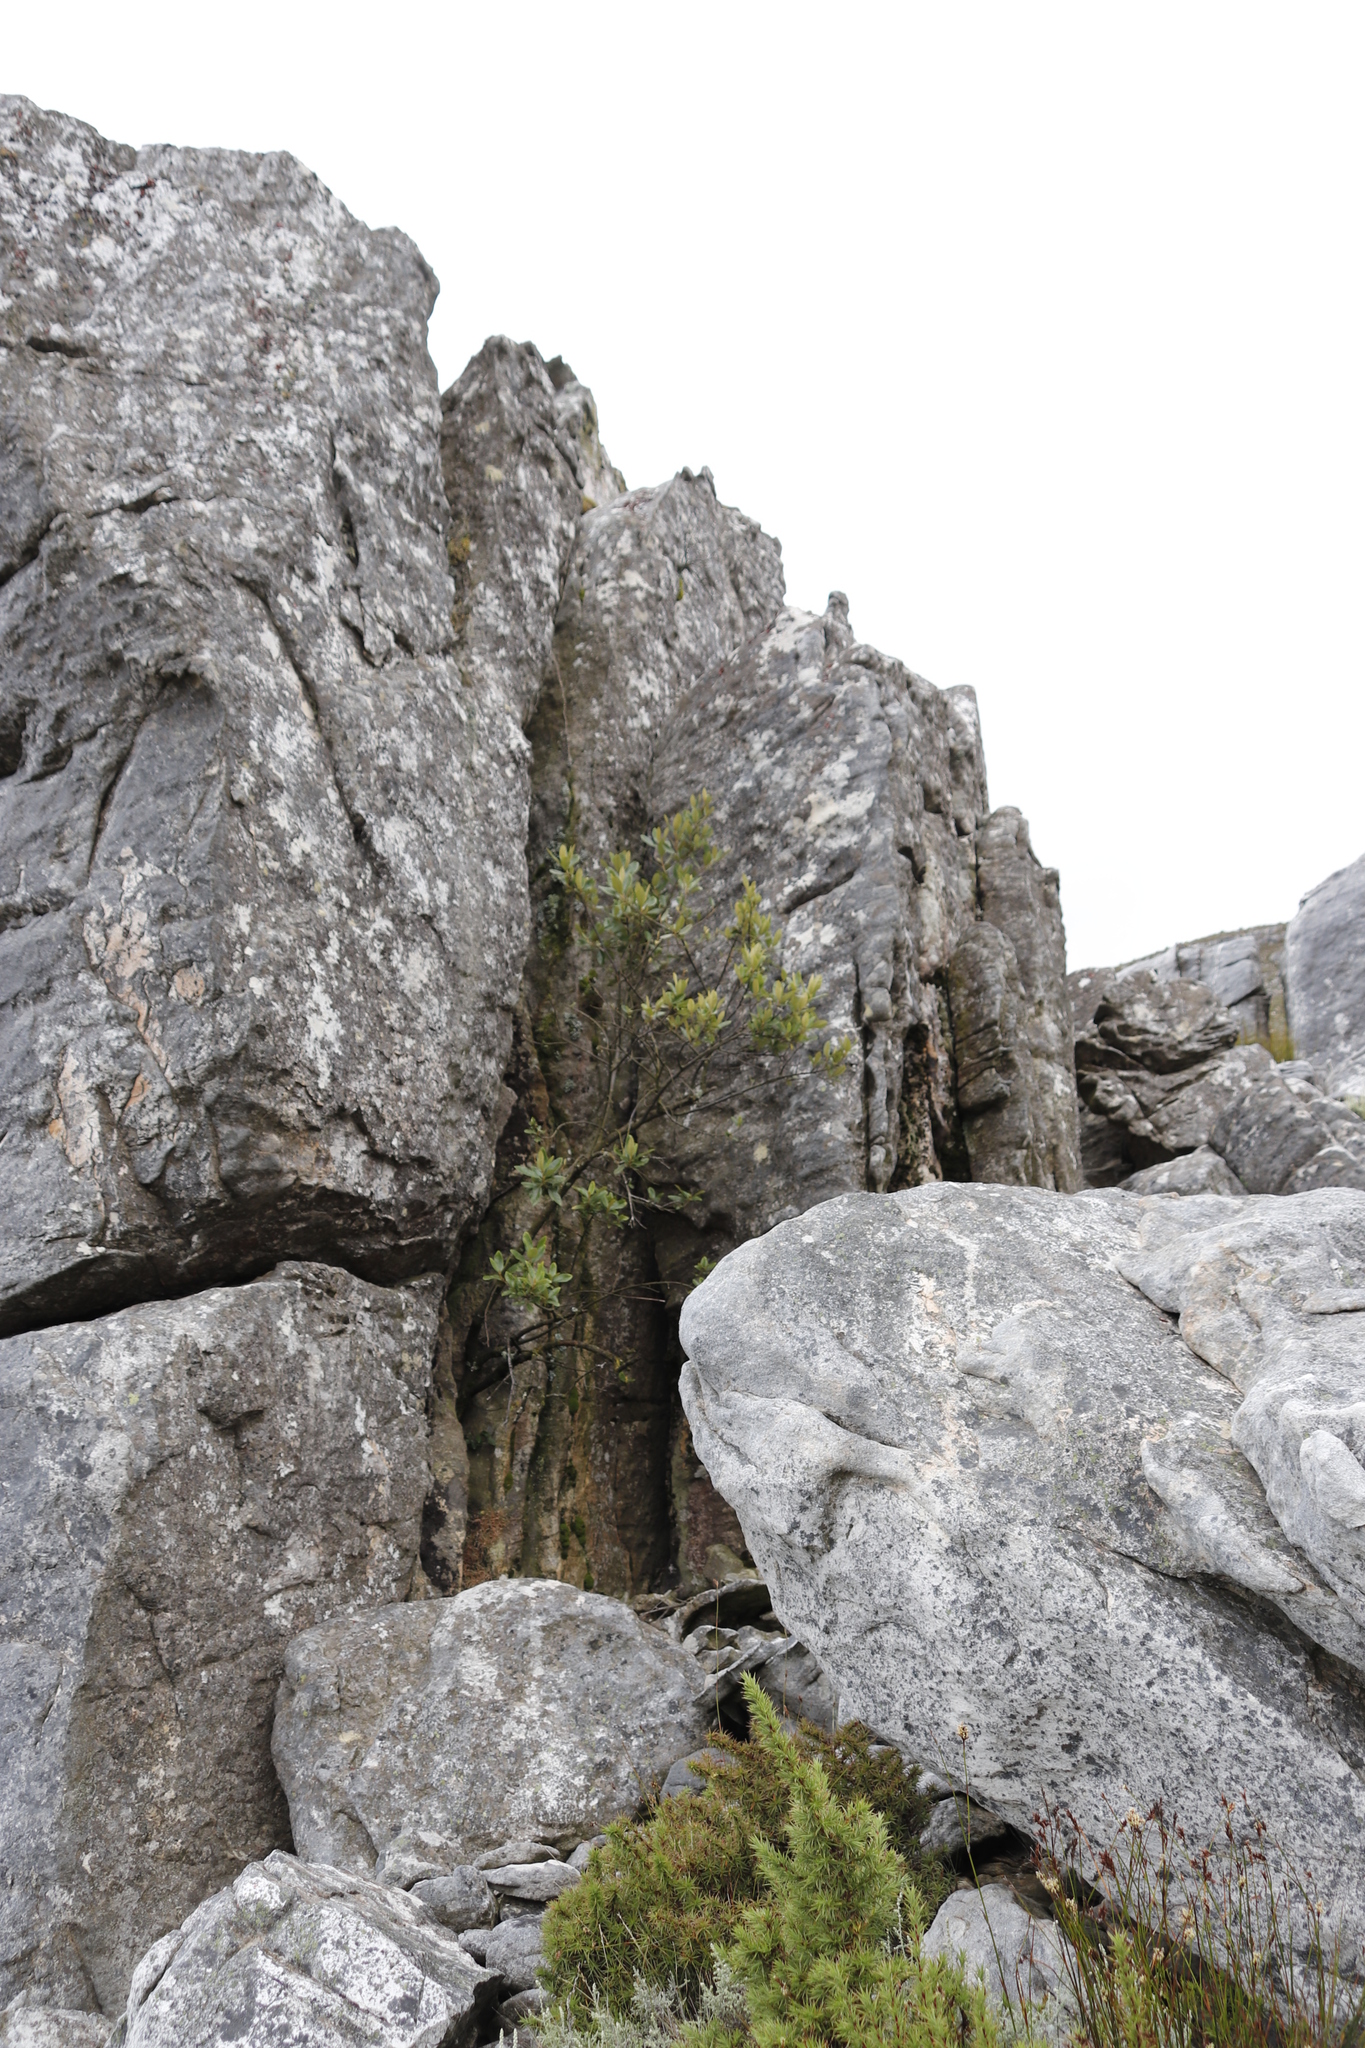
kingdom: Plantae
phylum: Tracheophyta
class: Magnoliopsida
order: Malpighiales
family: Achariaceae
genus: Kiggelaria
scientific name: Kiggelaria africana
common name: Wild peach
